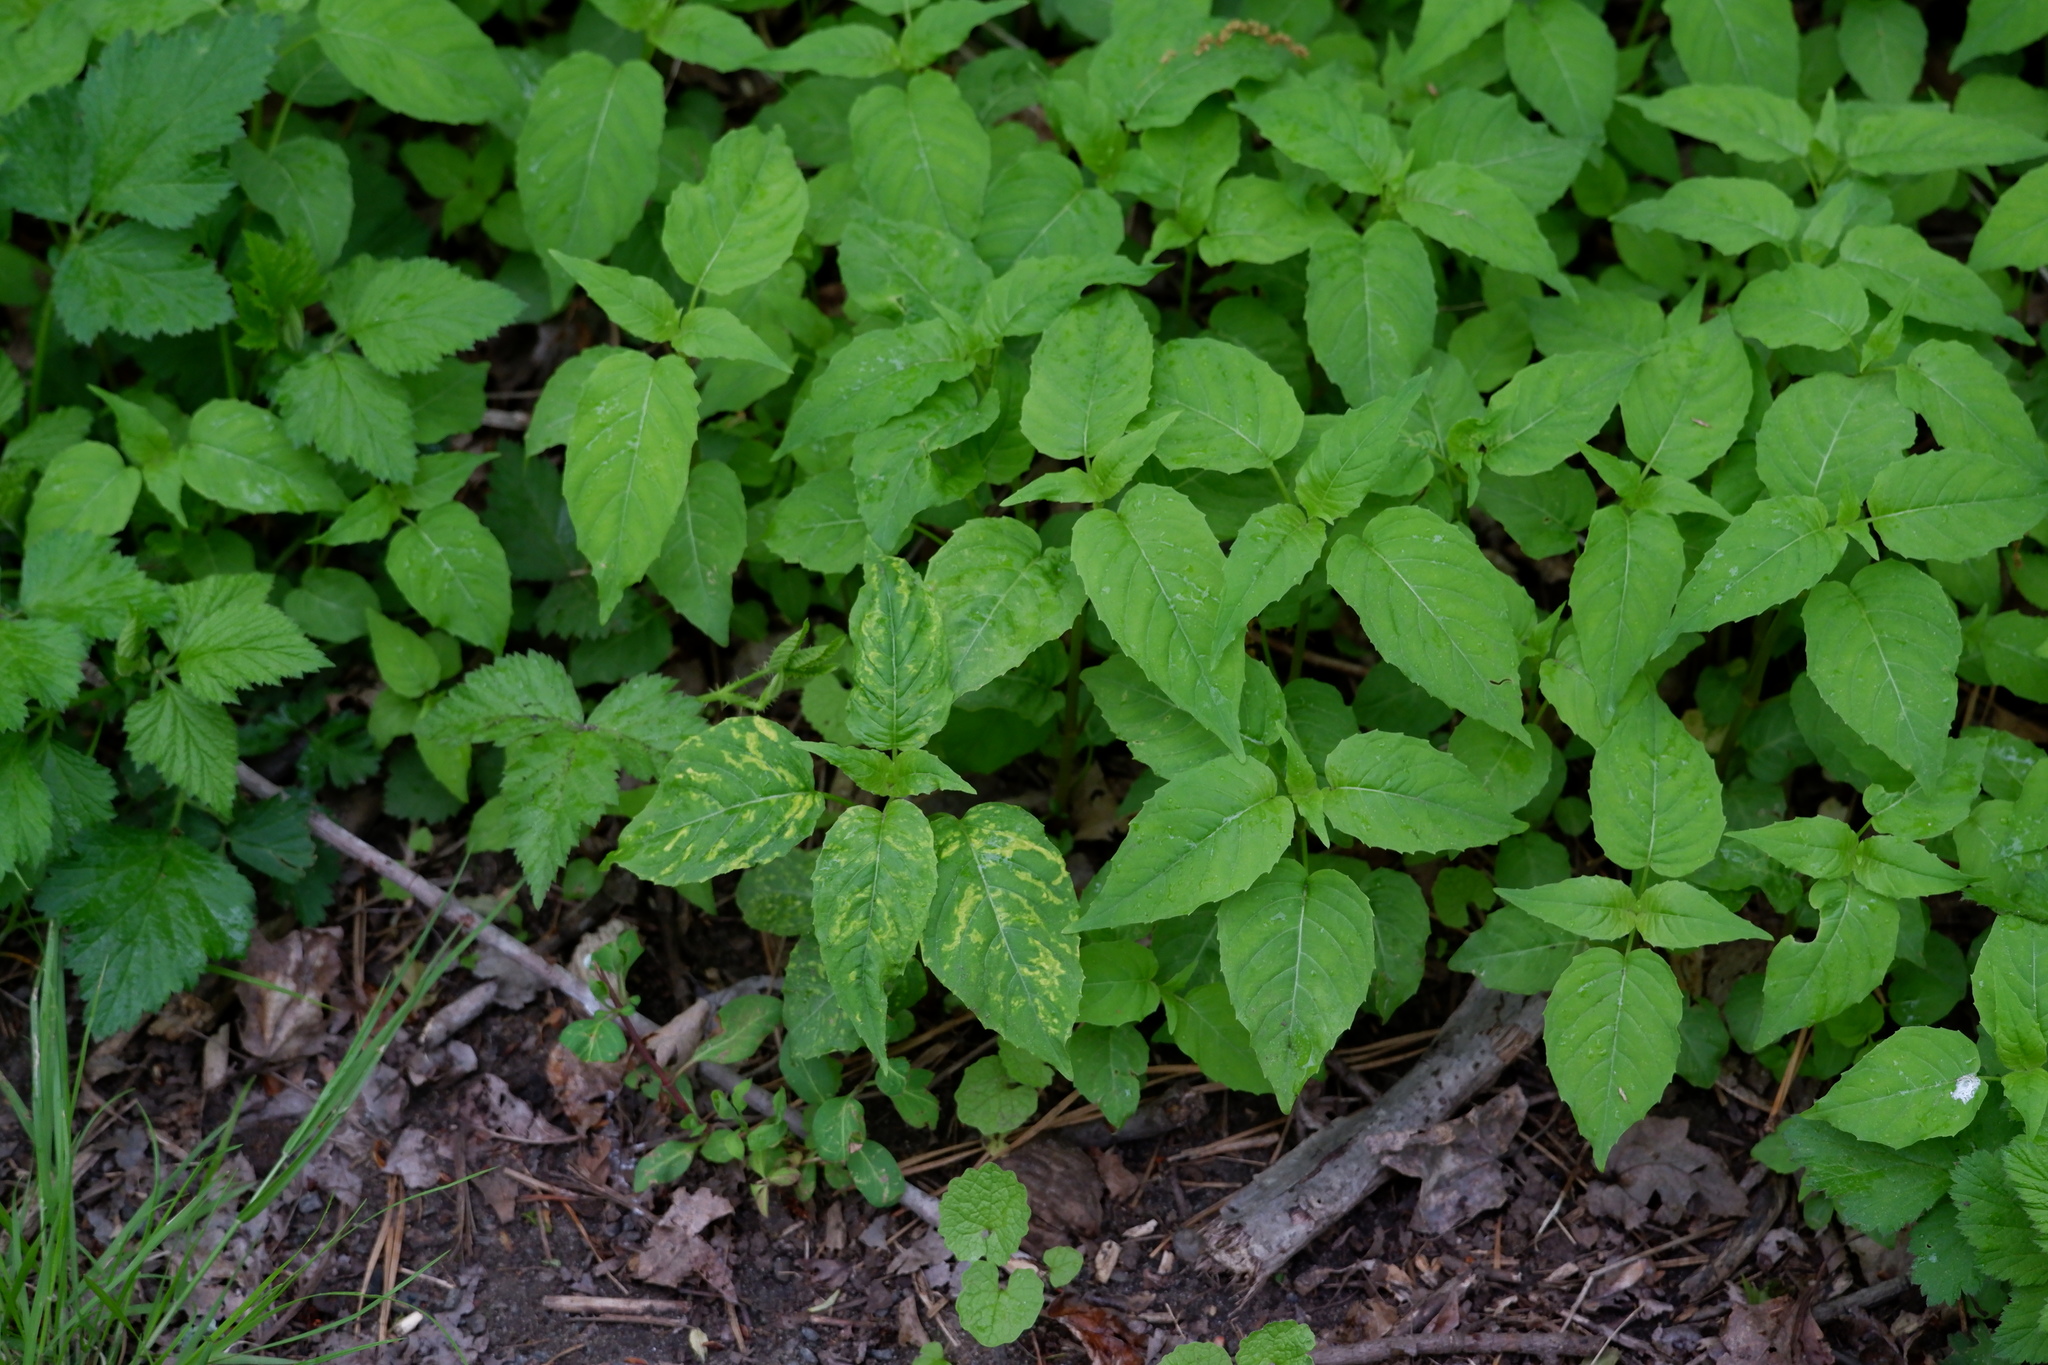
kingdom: Plantae
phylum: Tracheophyta
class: Magnoliopsida
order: Myrtales
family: Onagraceae
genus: Circaea
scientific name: Circaea canadensis
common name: Broad-leaved enchanter's nightshade
